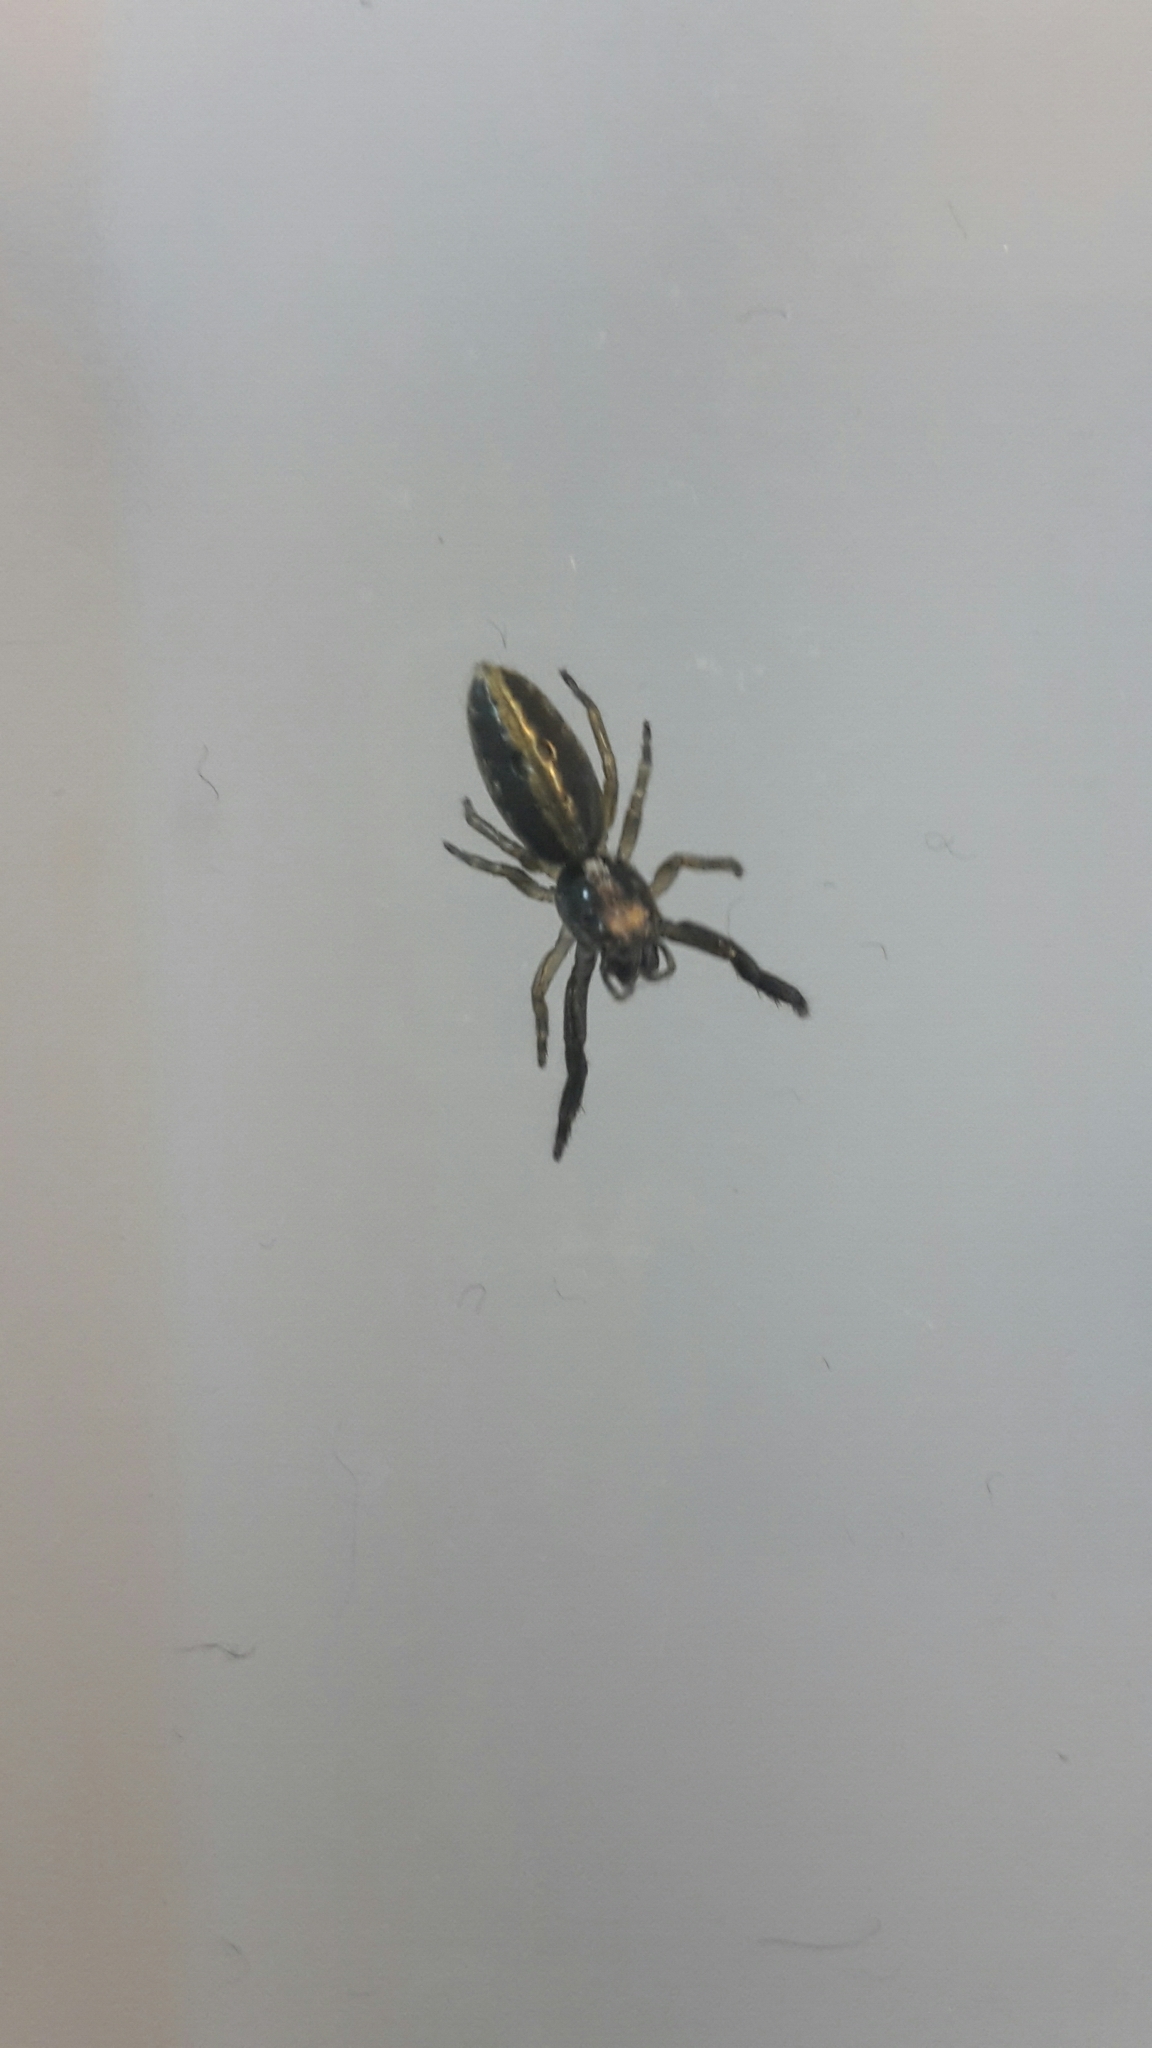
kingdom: Animalia
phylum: Arthropoda
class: Arachnida
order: Araneae
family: Salticidae
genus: Trite
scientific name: Trite planiceps
